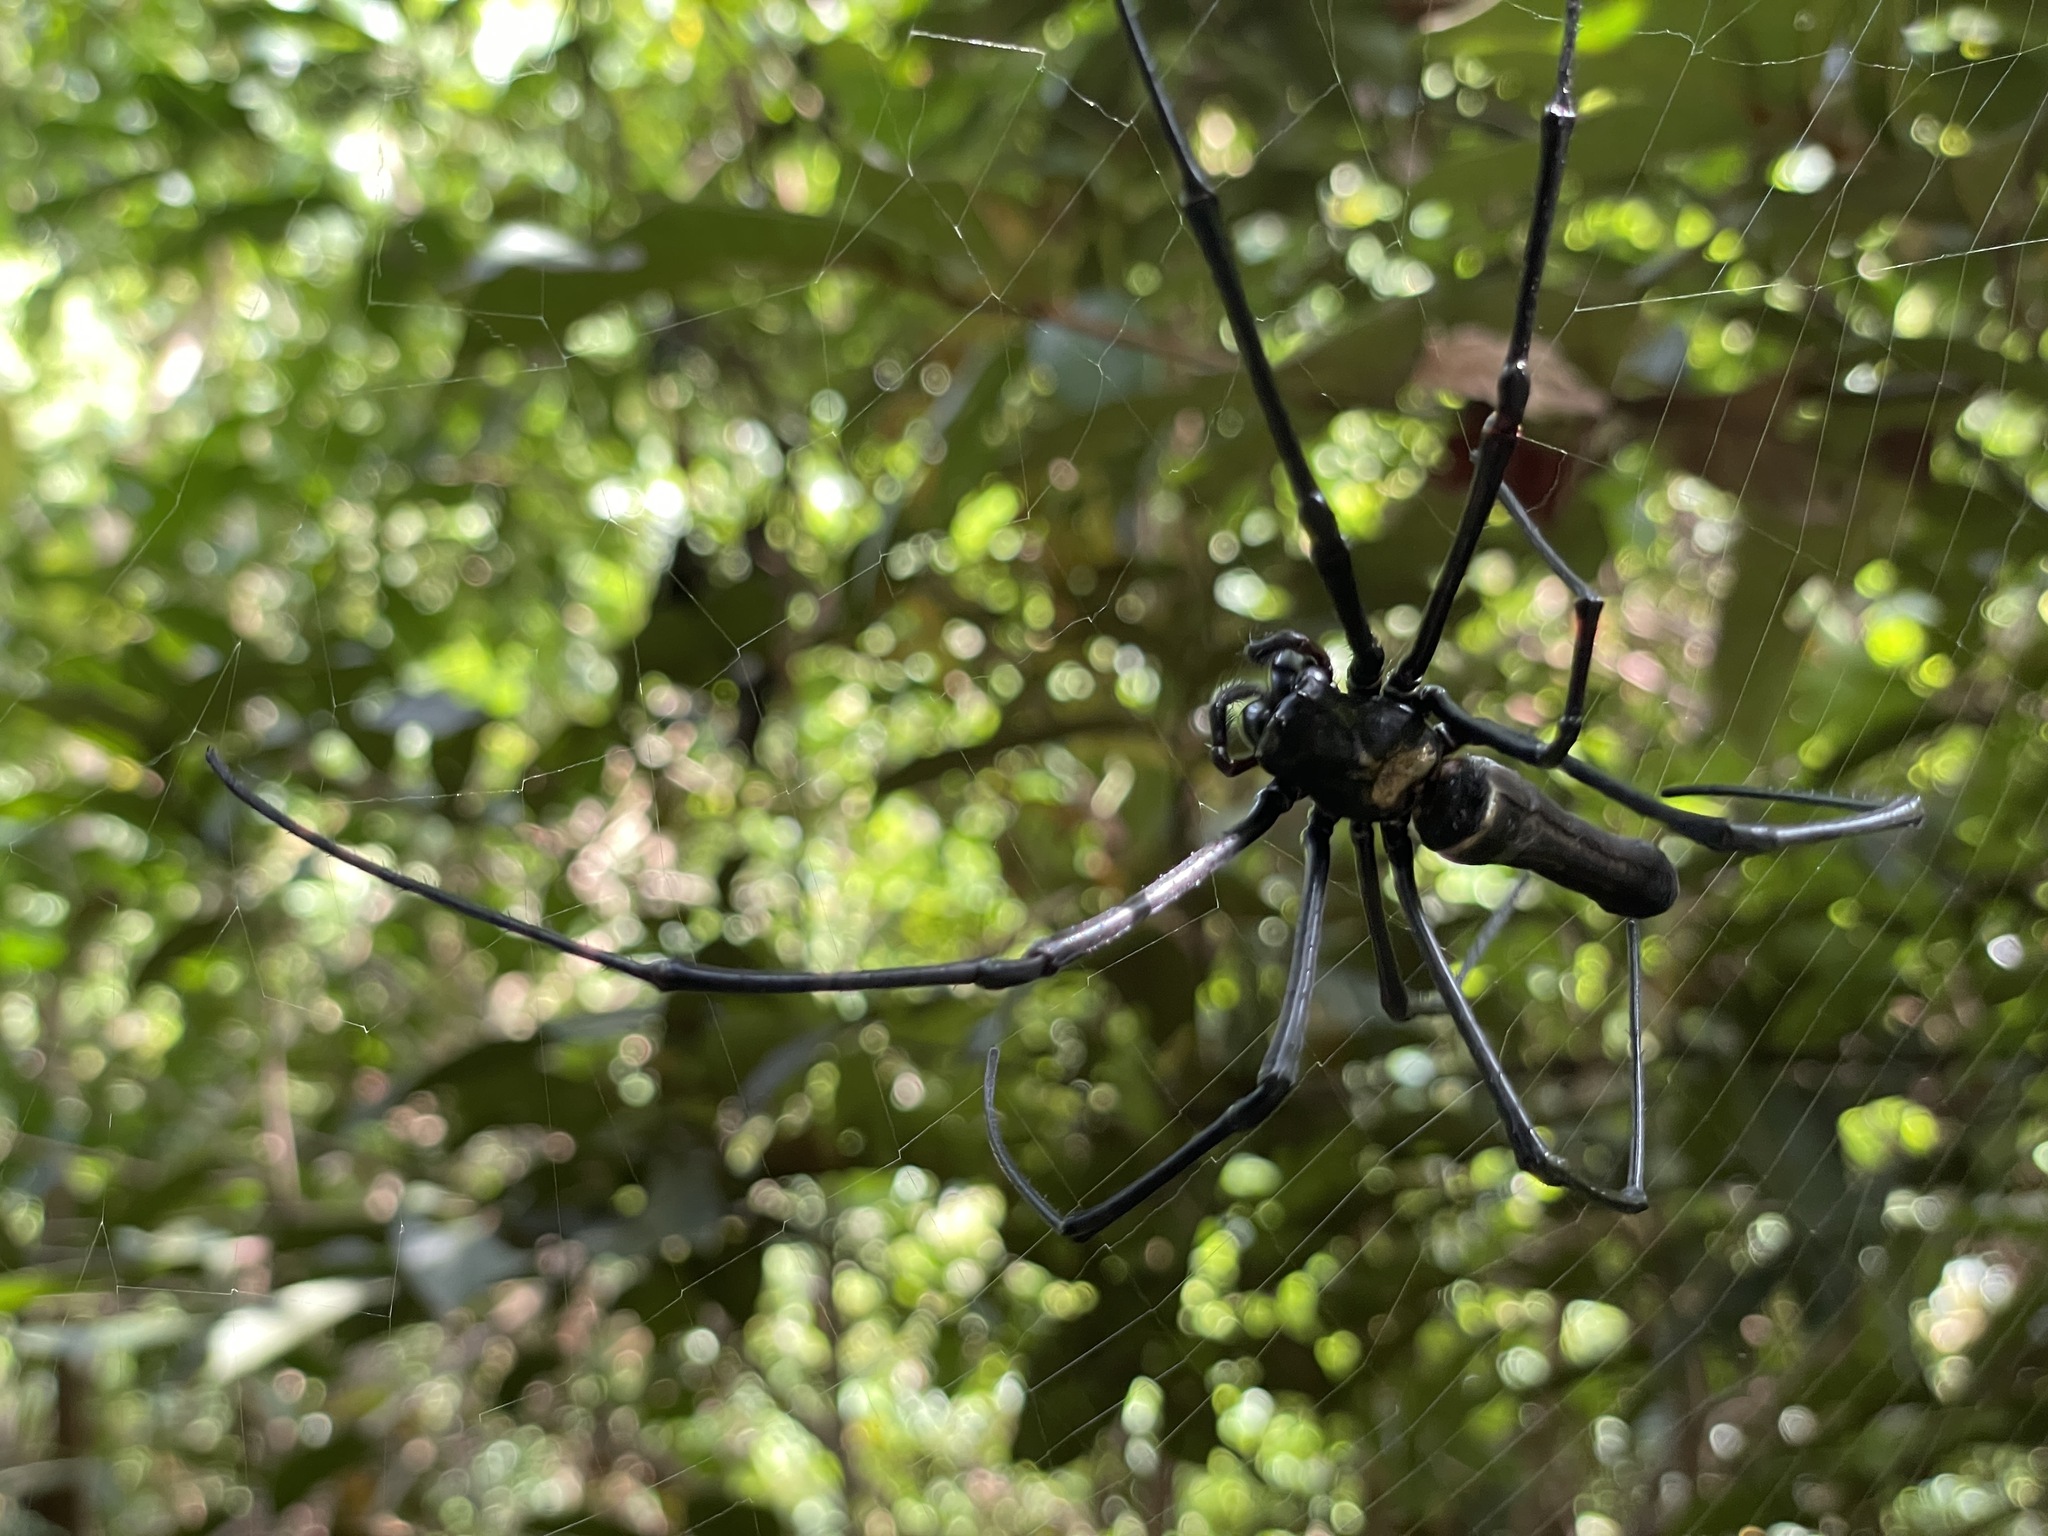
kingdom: Animalia
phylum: Arthropoda
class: Arachnida
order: Araneae
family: Araneidae
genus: Nephila
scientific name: Nephila pilipes
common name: Giant golden orb weaver
